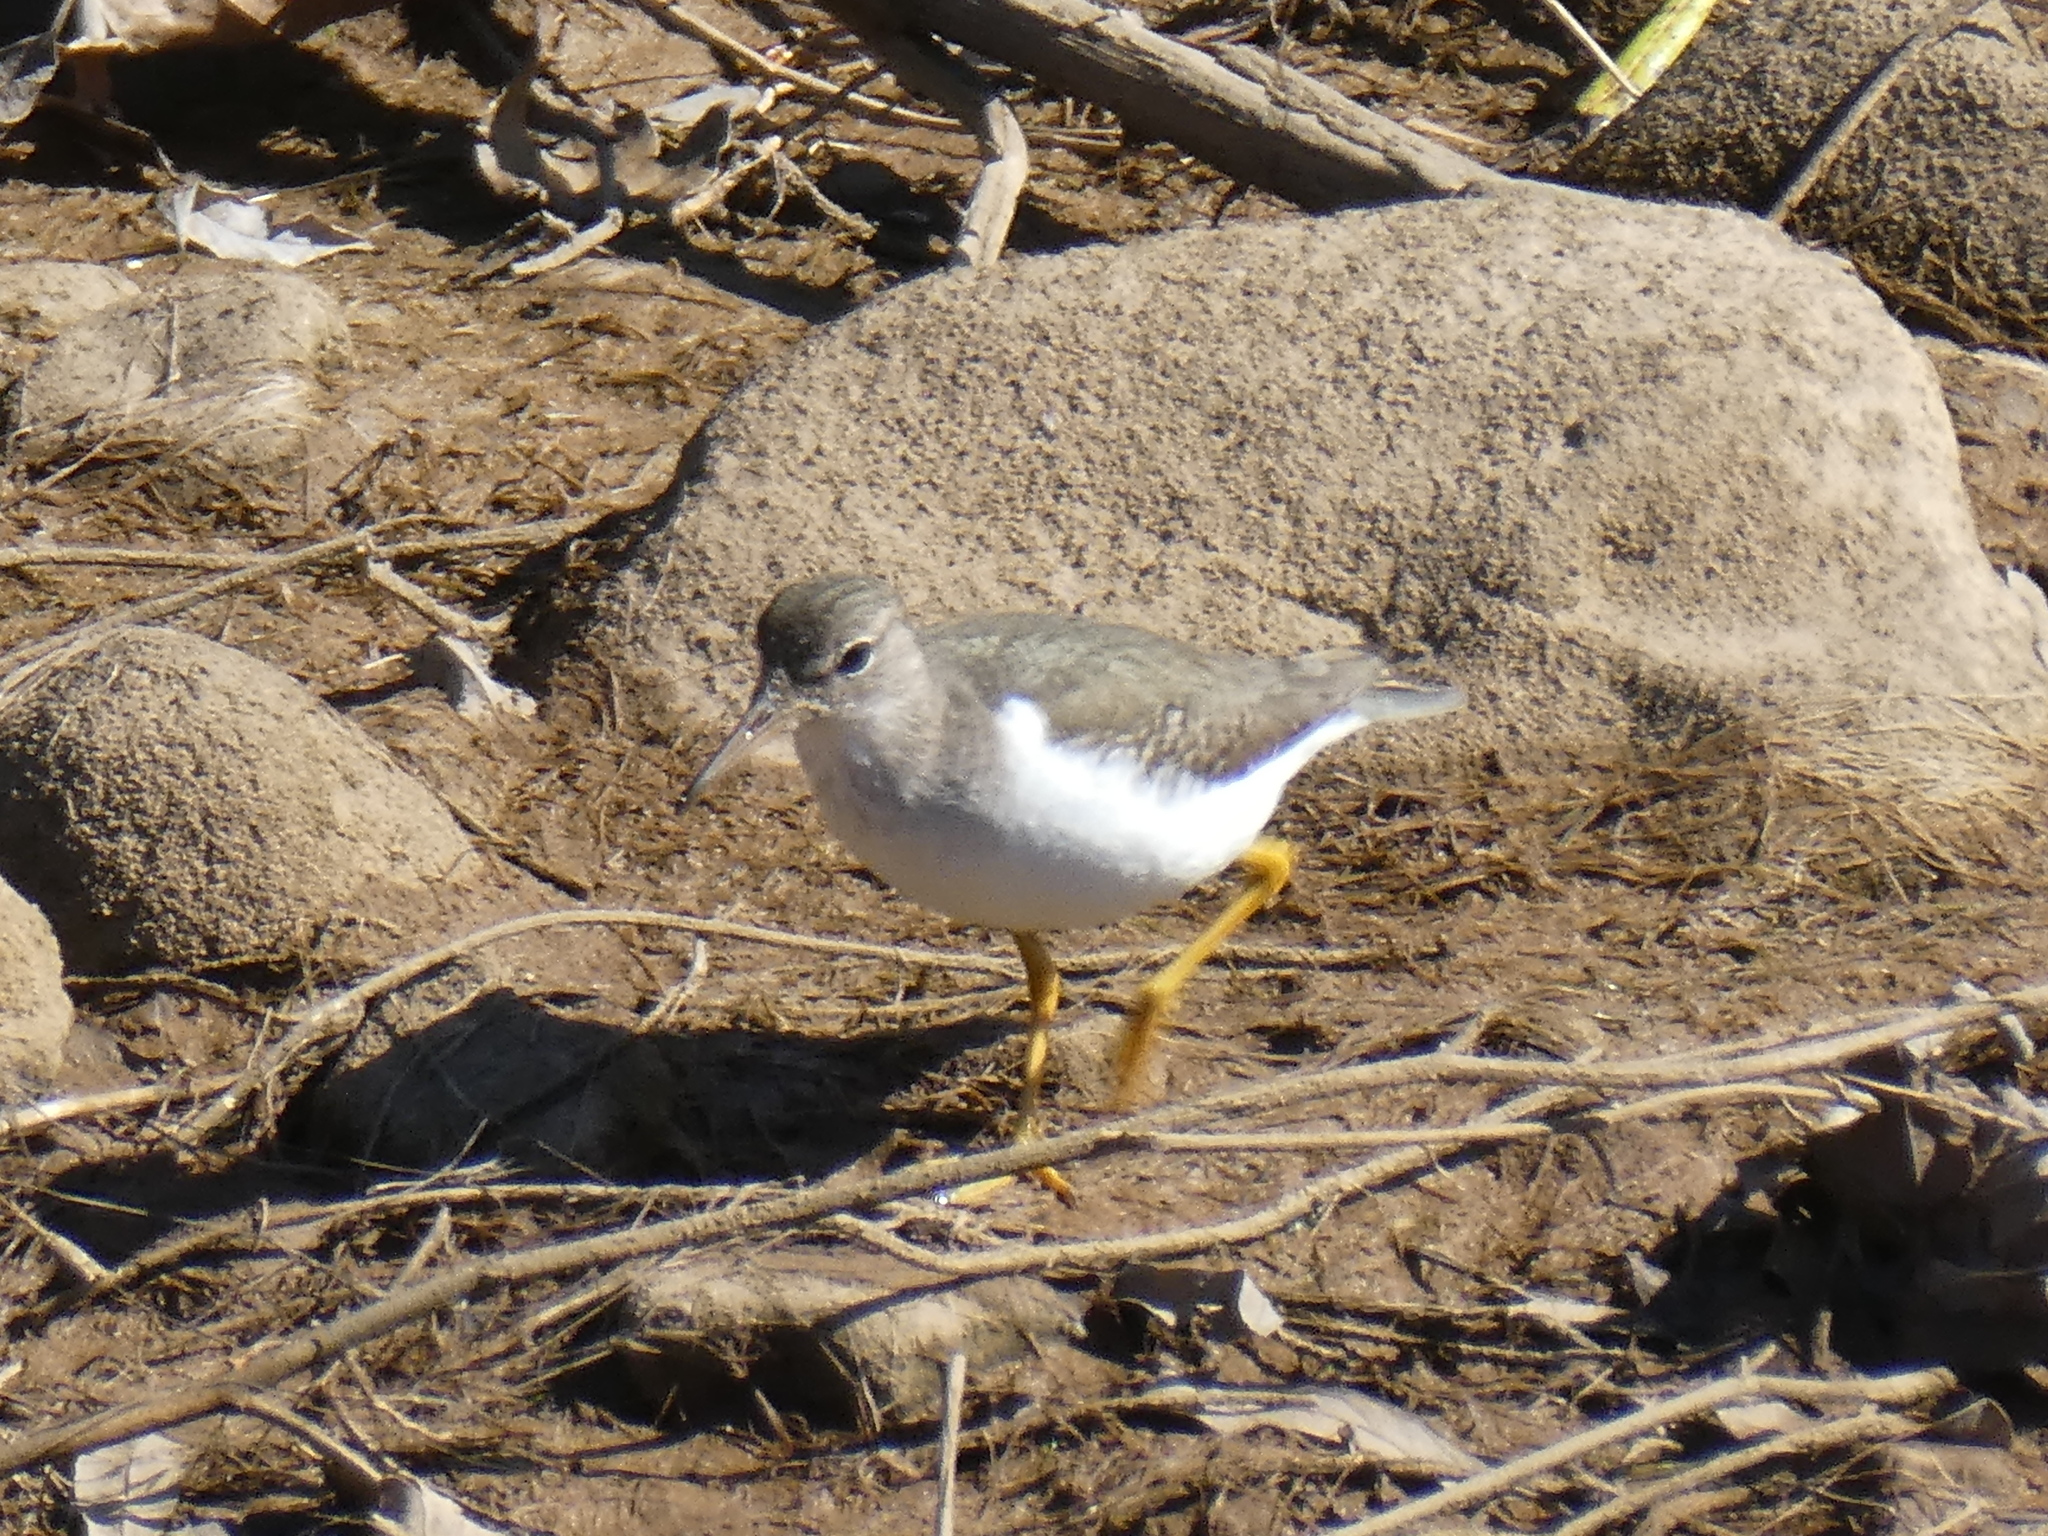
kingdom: Animalia
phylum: Chordata
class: Aves
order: Charadriiformes
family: Scolopacidae
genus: Actitis
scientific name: Actitis macularius
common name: Spotted sandpiper
